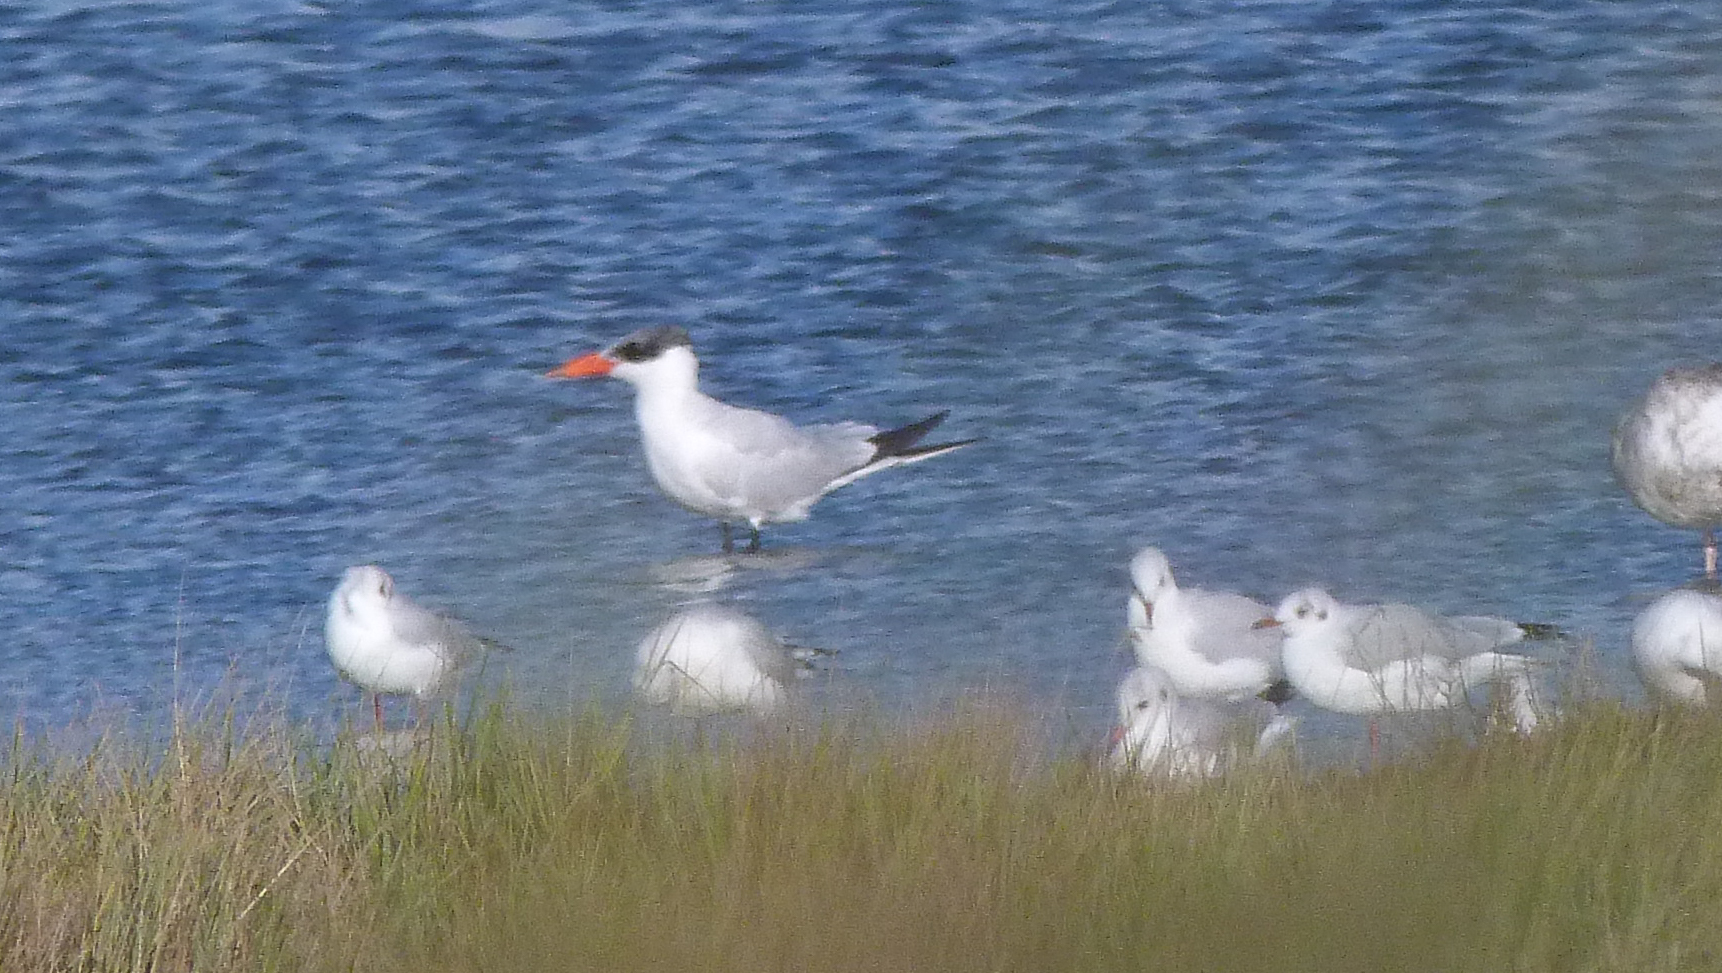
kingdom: Animalia
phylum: Chordata
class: Aves
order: Charadriiformes
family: Laridae
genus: Hydroprogne
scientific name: Hydroprogne caspia
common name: Caspian tern
